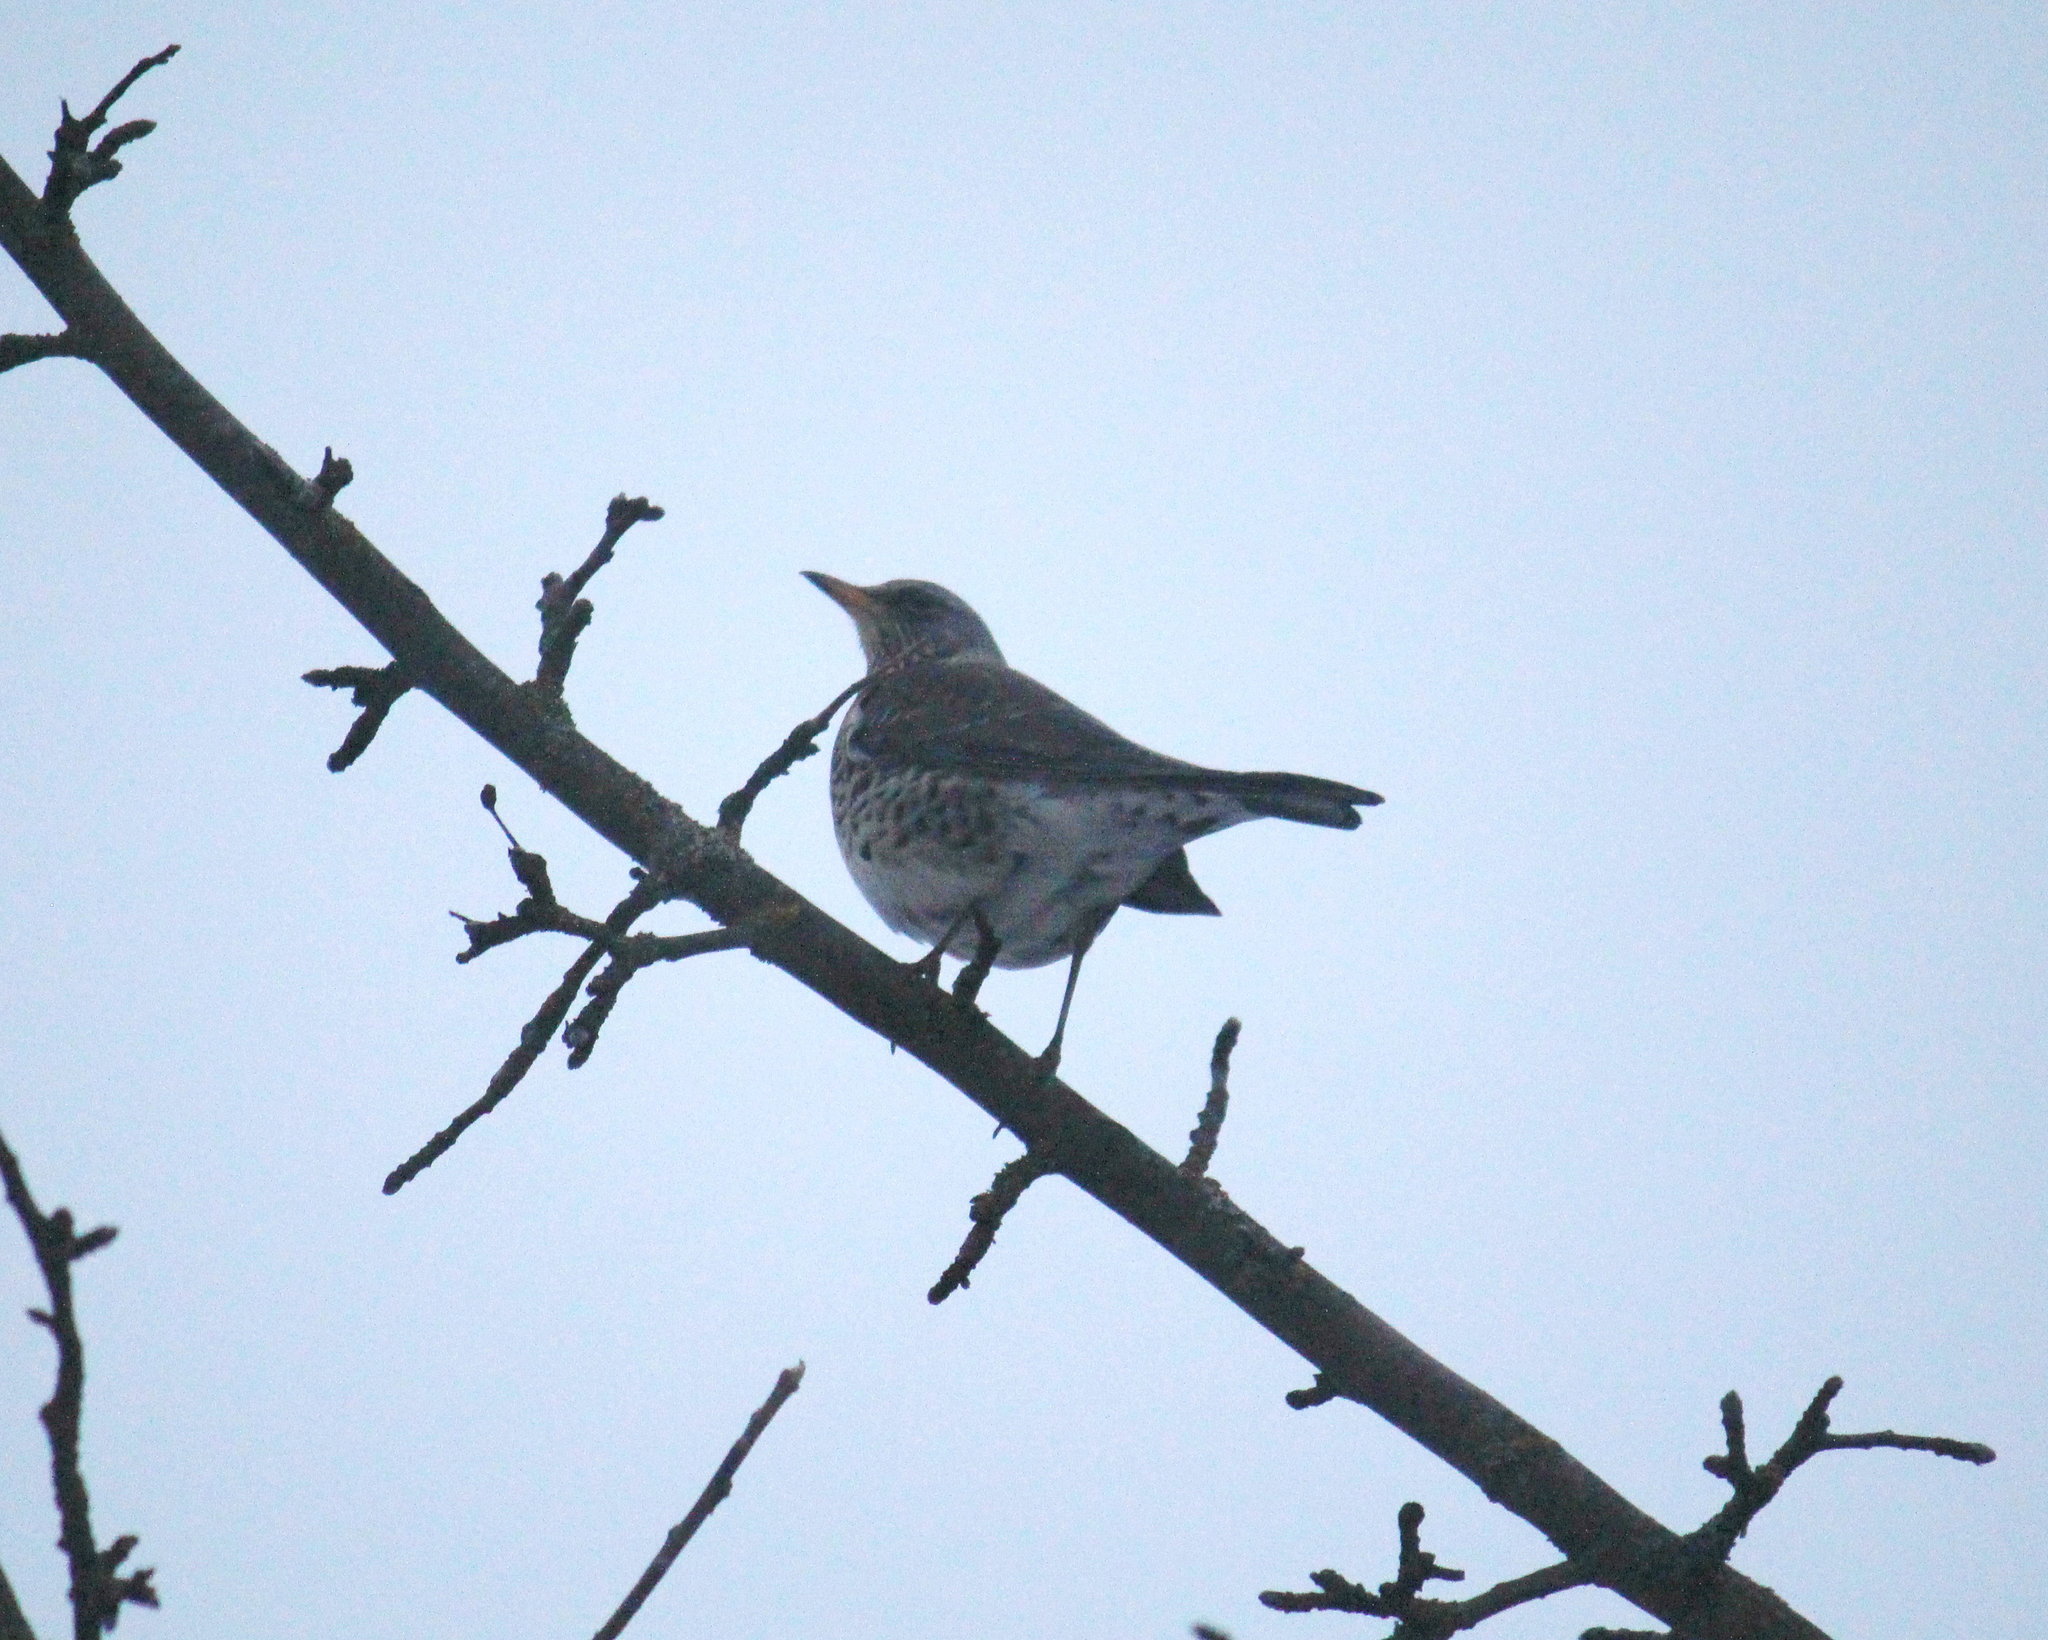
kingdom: Animalia
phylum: Chordata
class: Aves
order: Passeriformes
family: Turdidae
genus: Turdus
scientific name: Turdus pilaris
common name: Fieldfare
